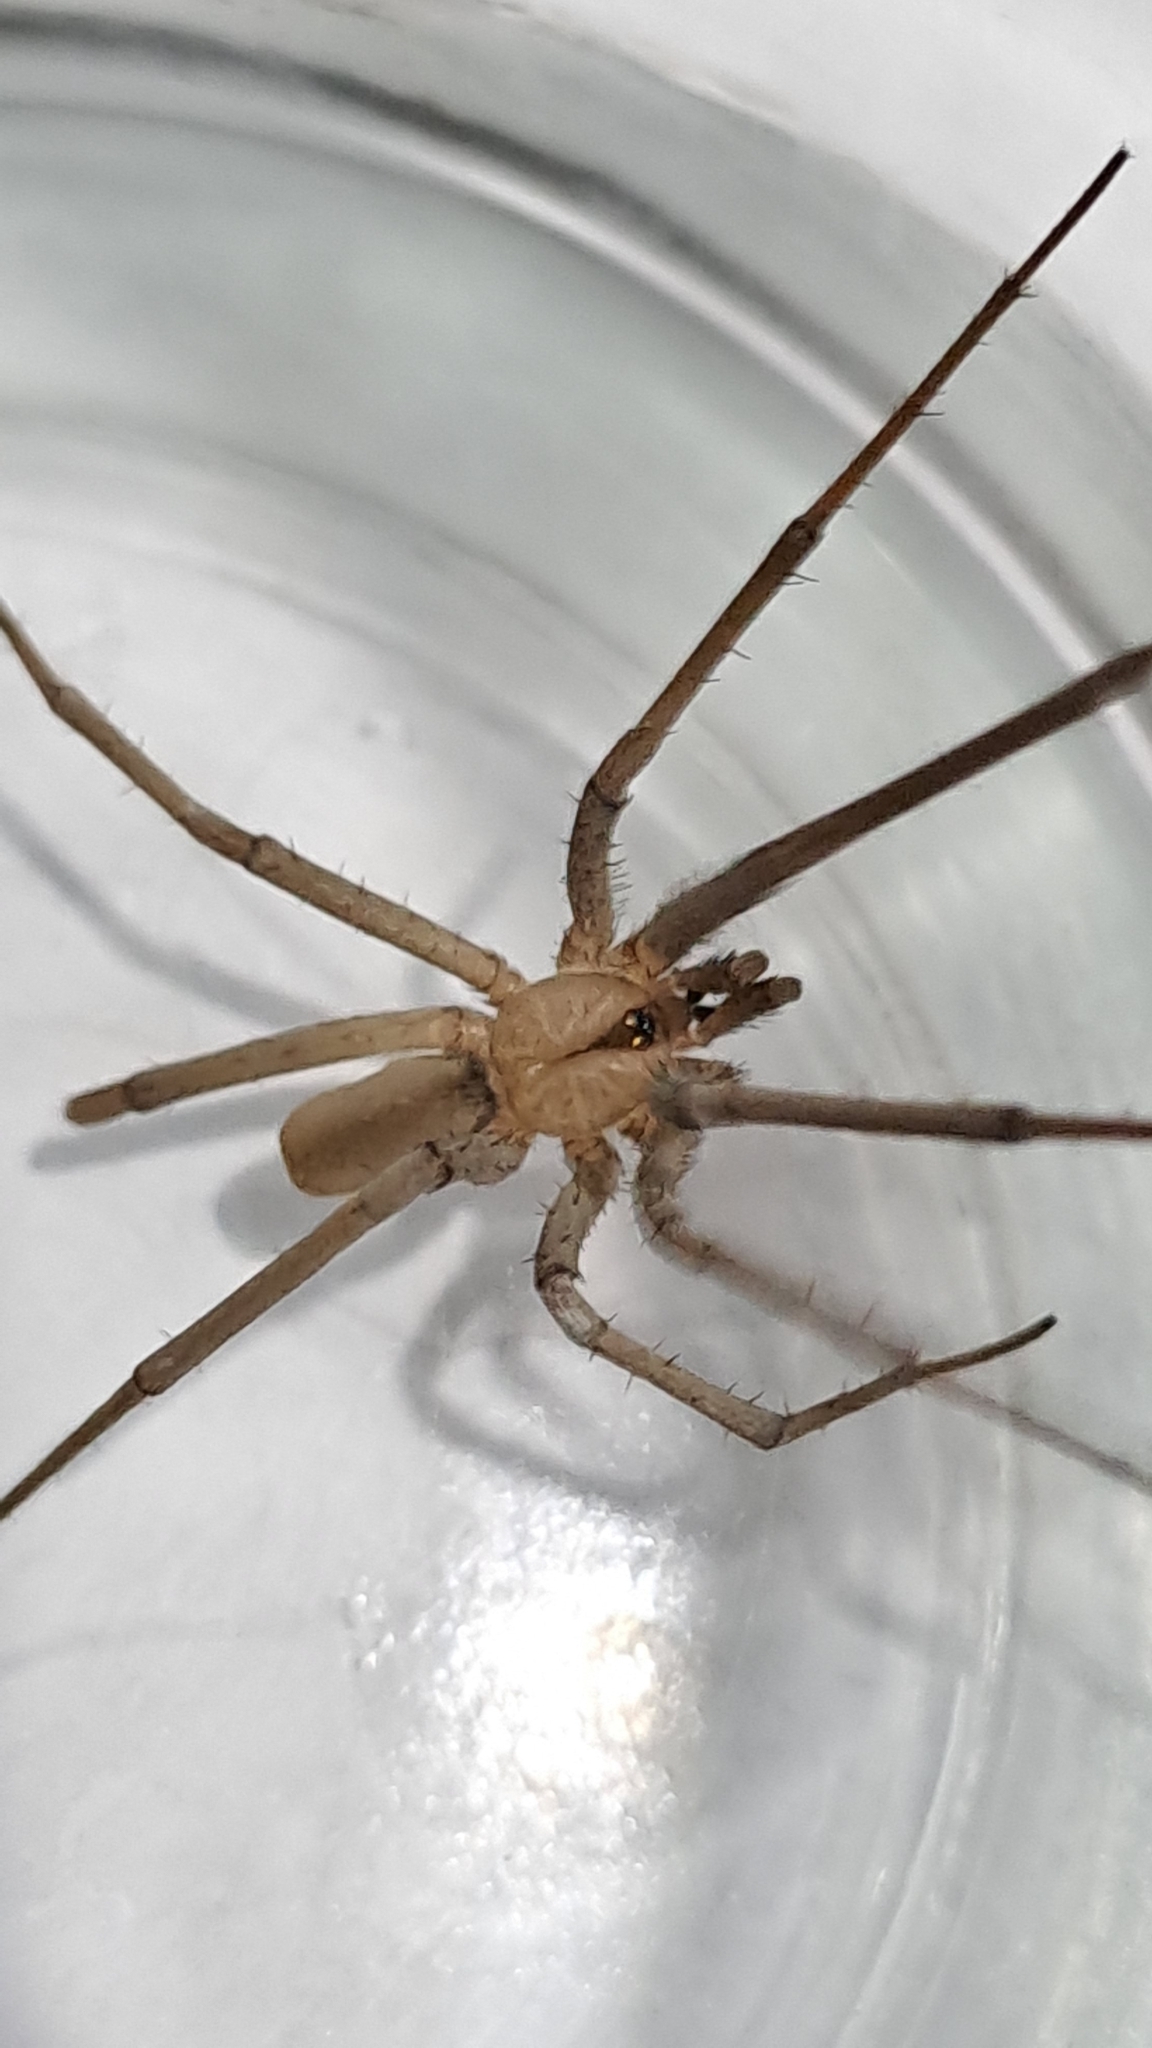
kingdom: Animalia
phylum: Arthropoda
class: Arachnida
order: Araneae
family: Filistatidae
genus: Kukulcania
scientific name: Kukulcania santosi
